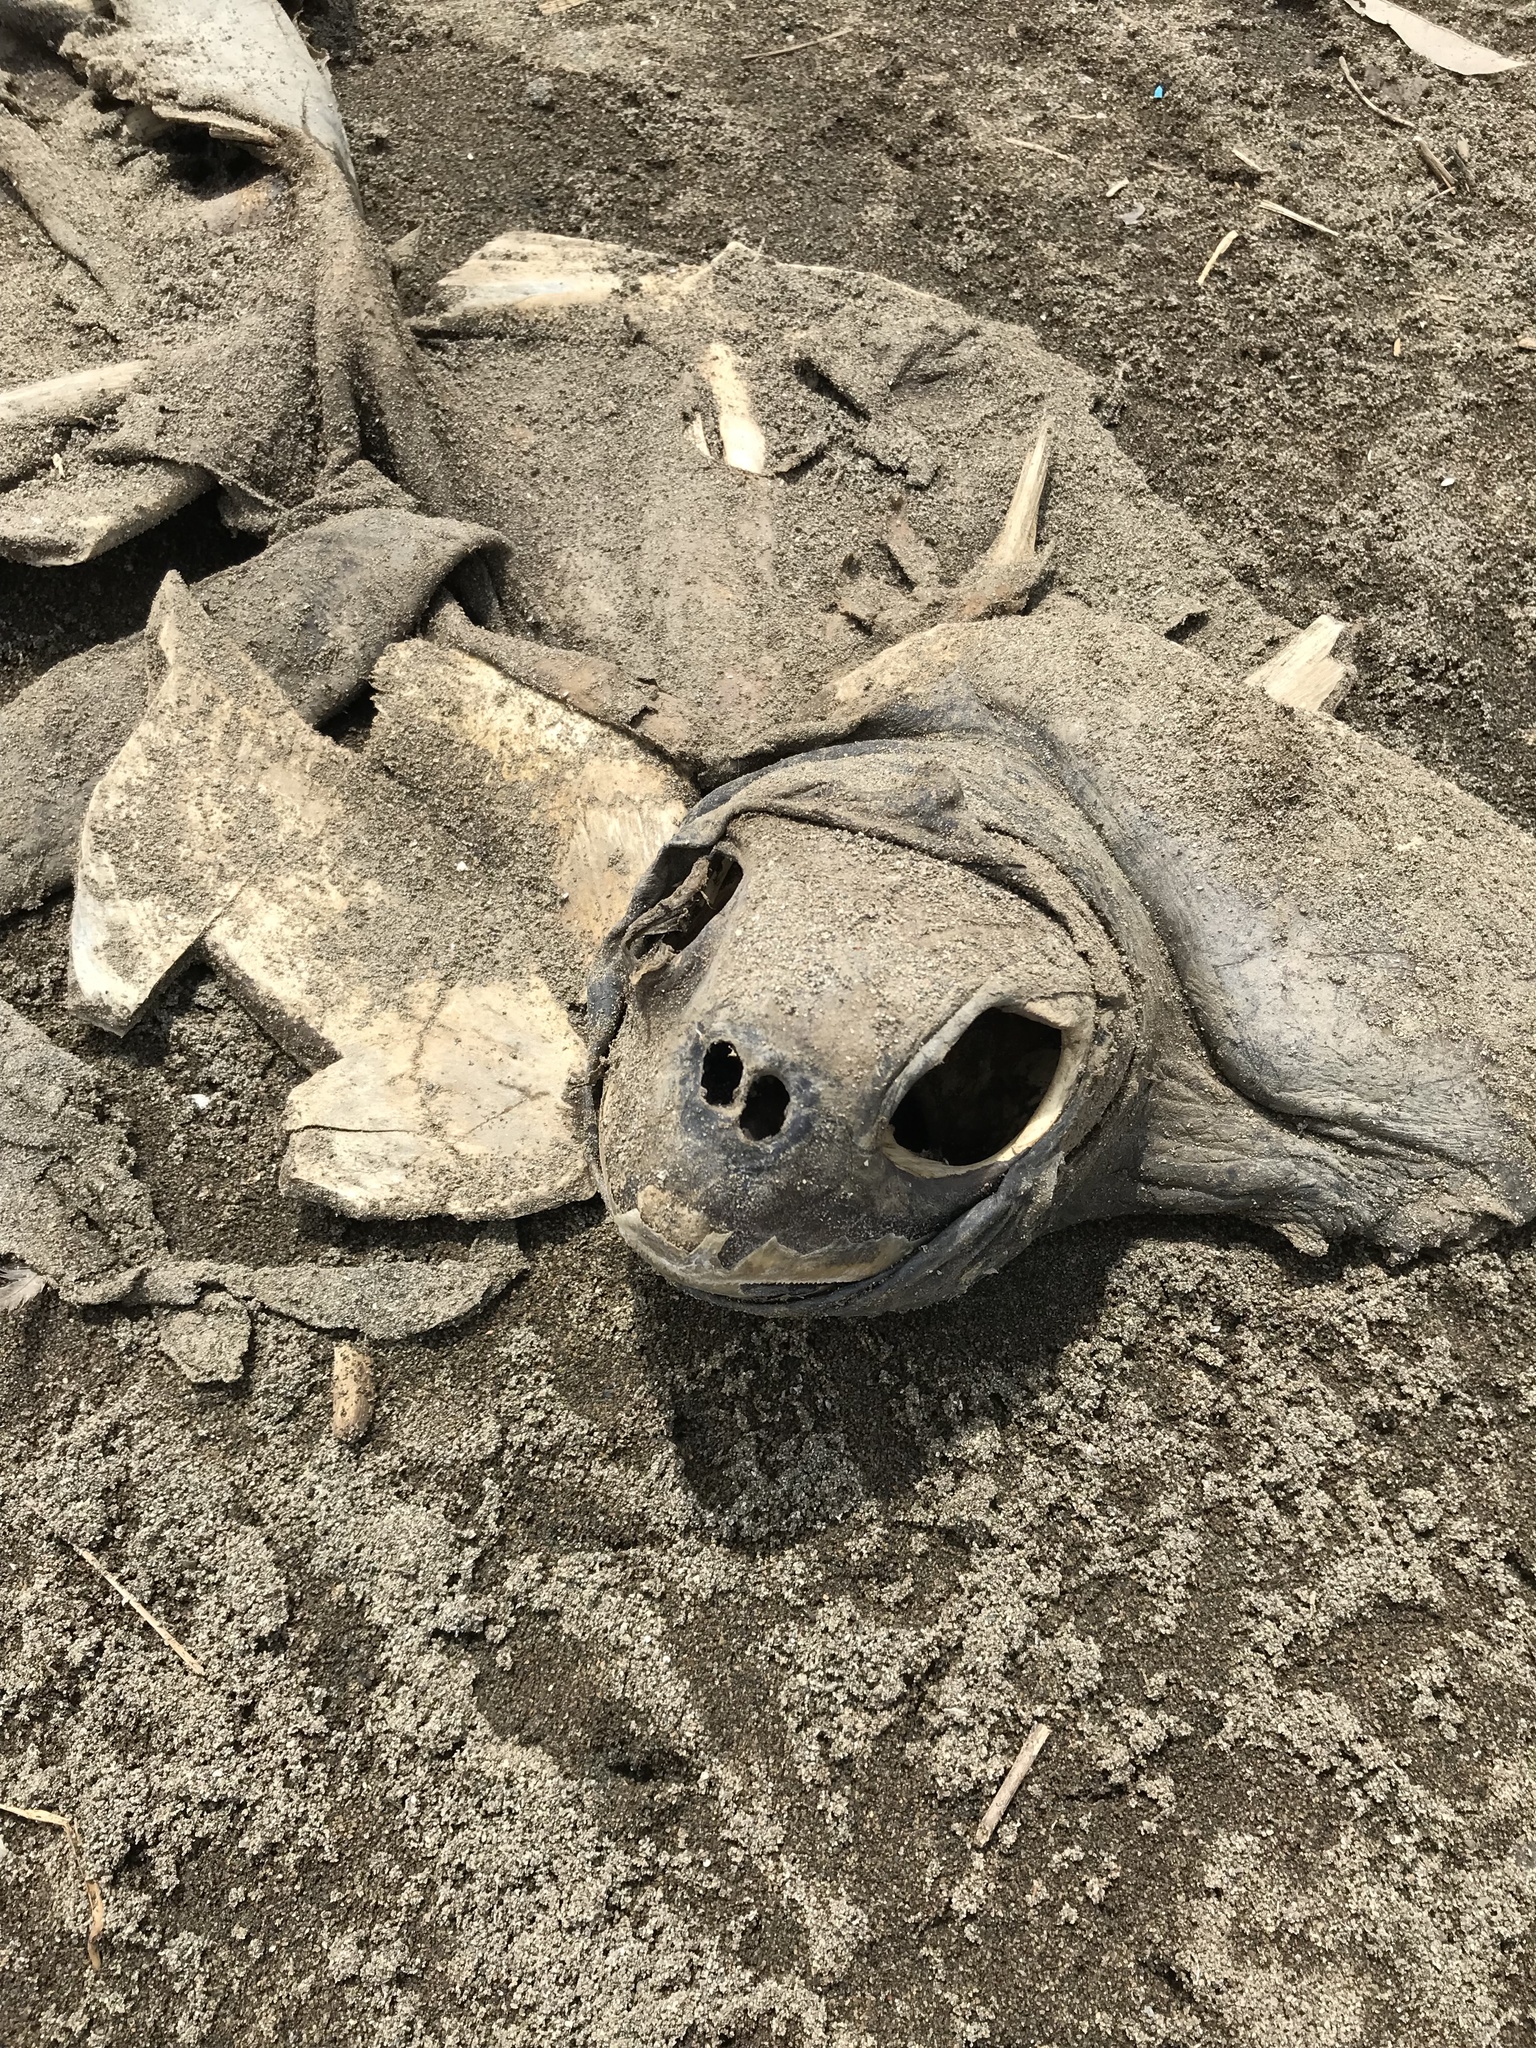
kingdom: Animalia
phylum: Chordata
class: Testudines
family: Cheloniidae
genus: Lepidochelys
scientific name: Lepidochelys olivacea
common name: Olive ridley
